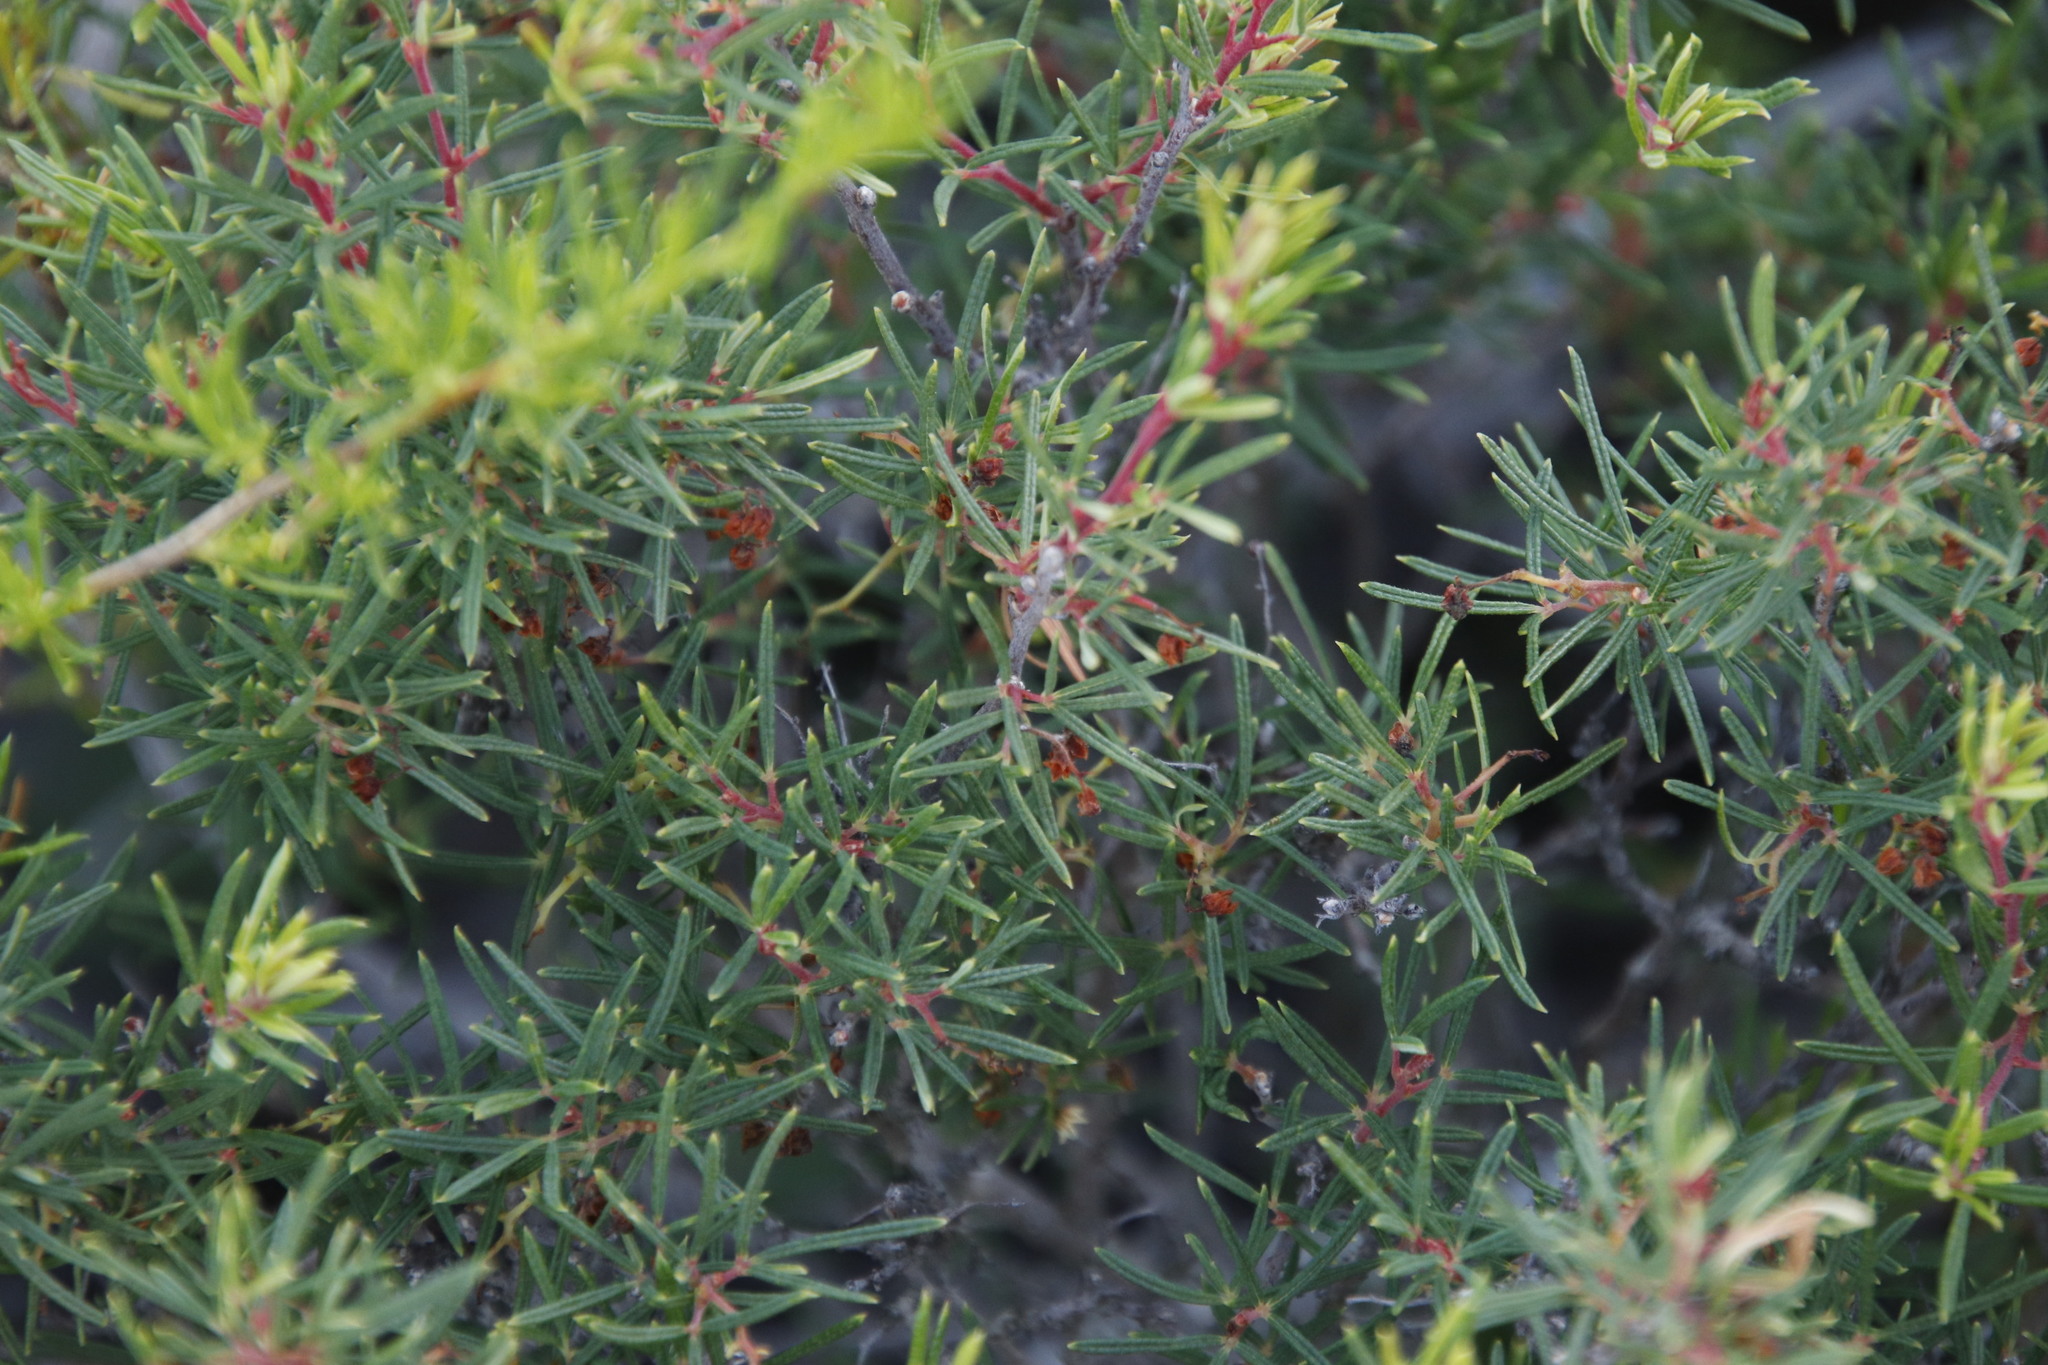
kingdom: Plantae
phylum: Tracheophyta
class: Magnoliopsida
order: Sapindales
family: Anacardiaceae
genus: Searsia
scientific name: Searsia rosmarinifolia
